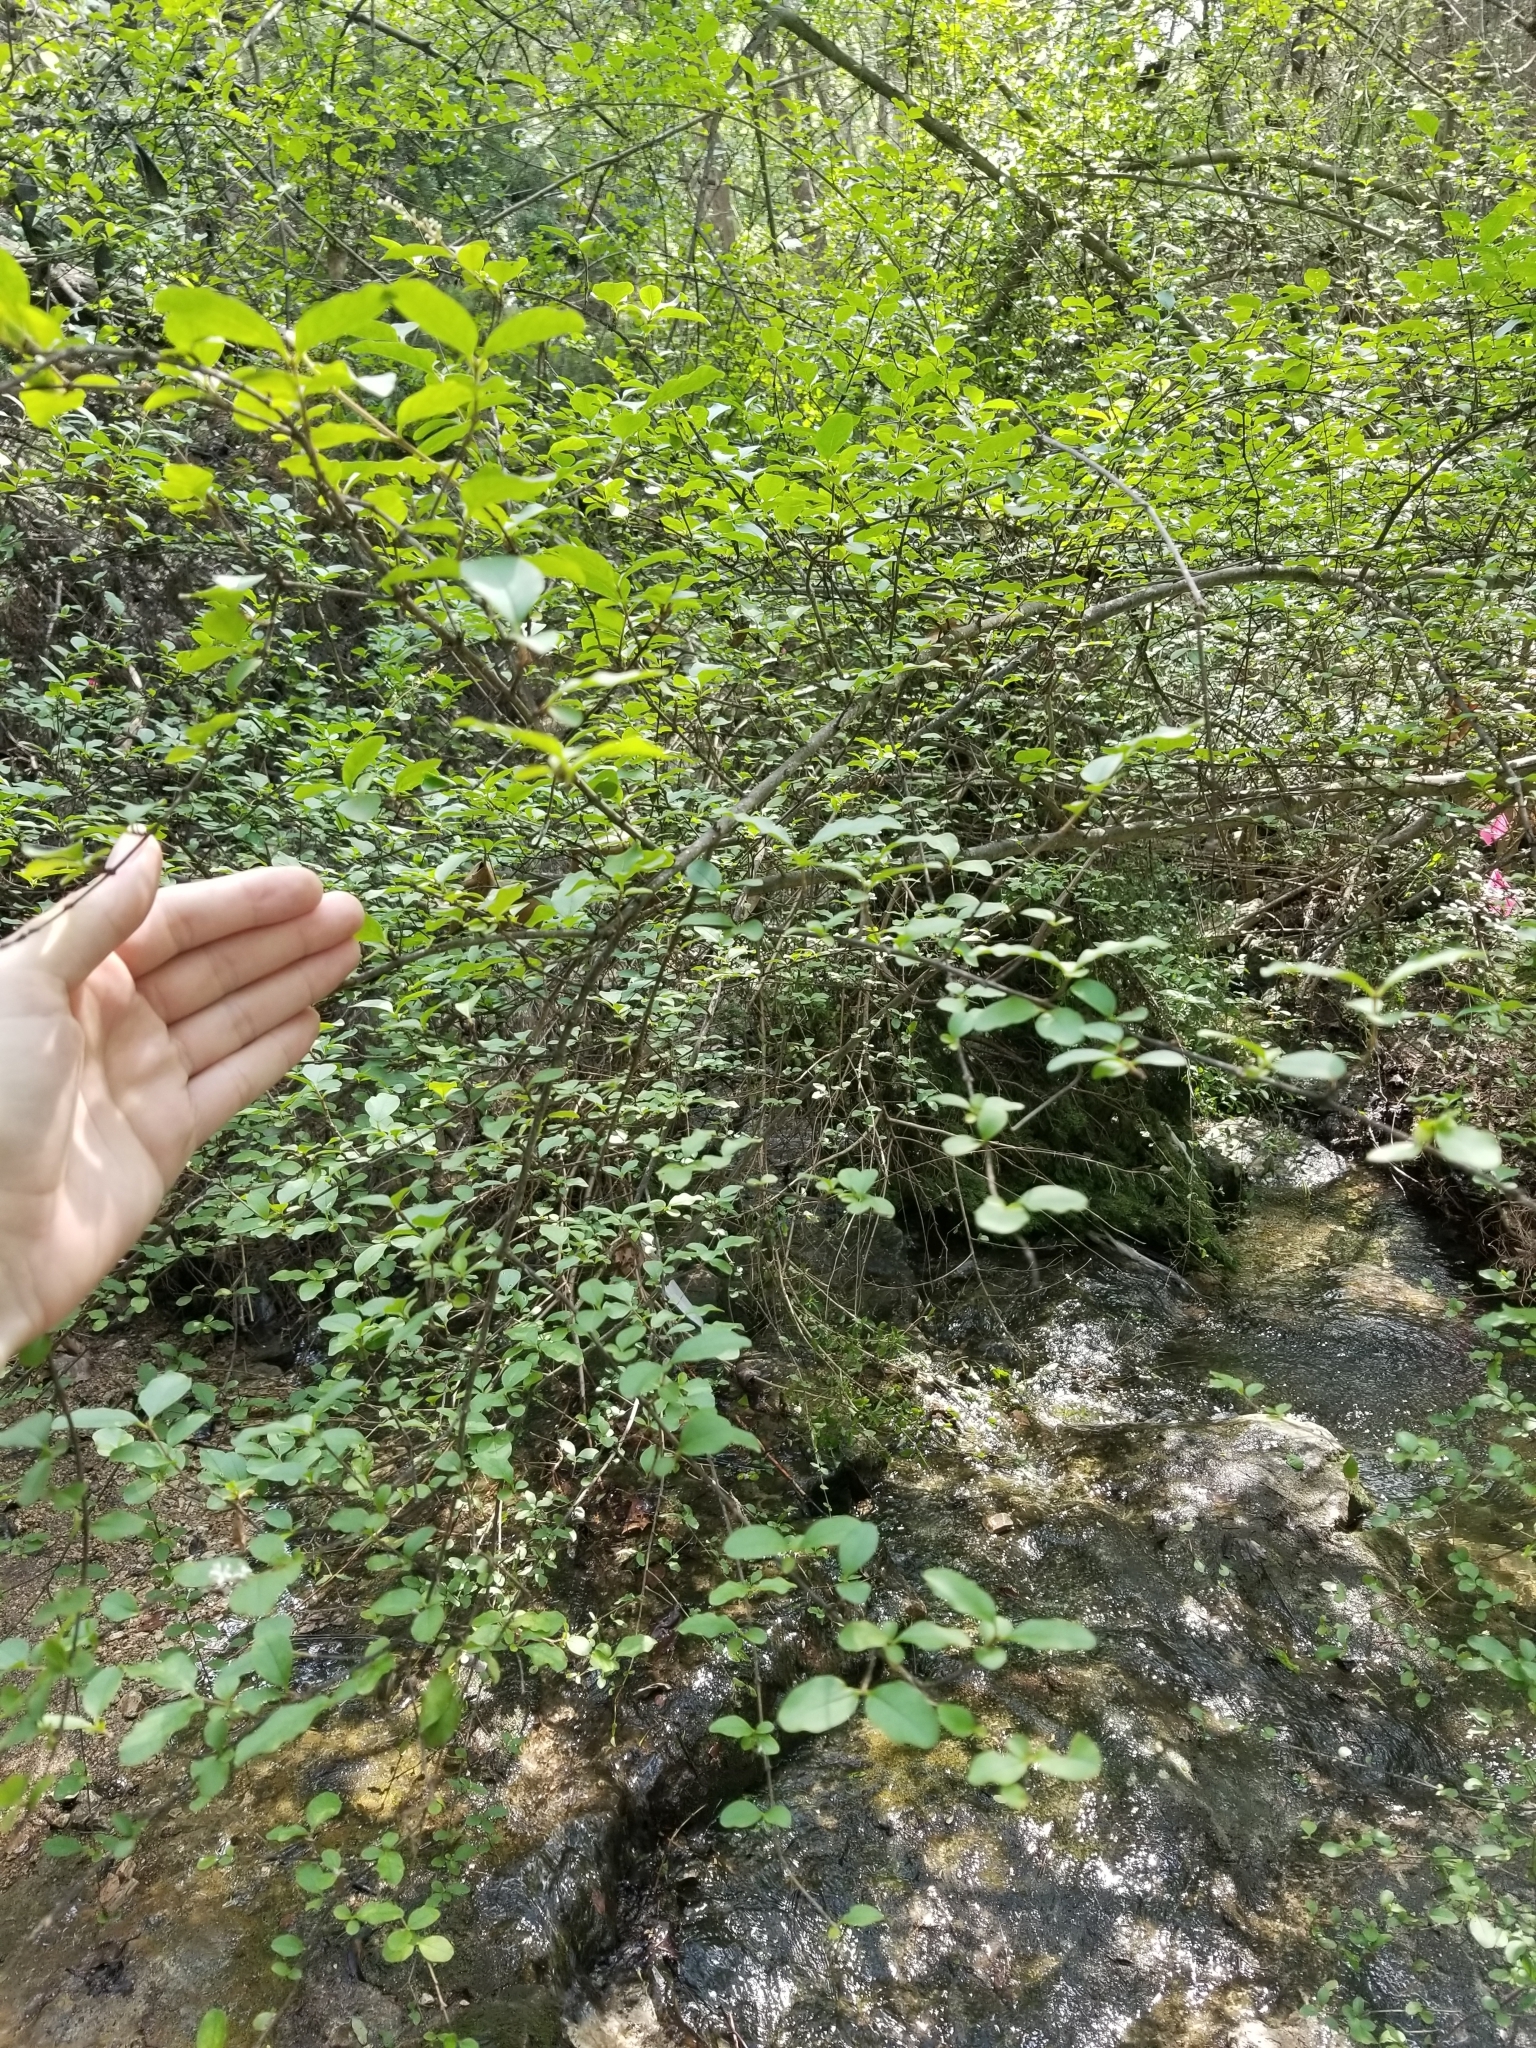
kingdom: Plantae
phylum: Tracheophyta
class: Magnoliopsida
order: Lamiales
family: Oleaceae
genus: Ligustrum
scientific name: Ligustrum sinense
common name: Chinese privet
